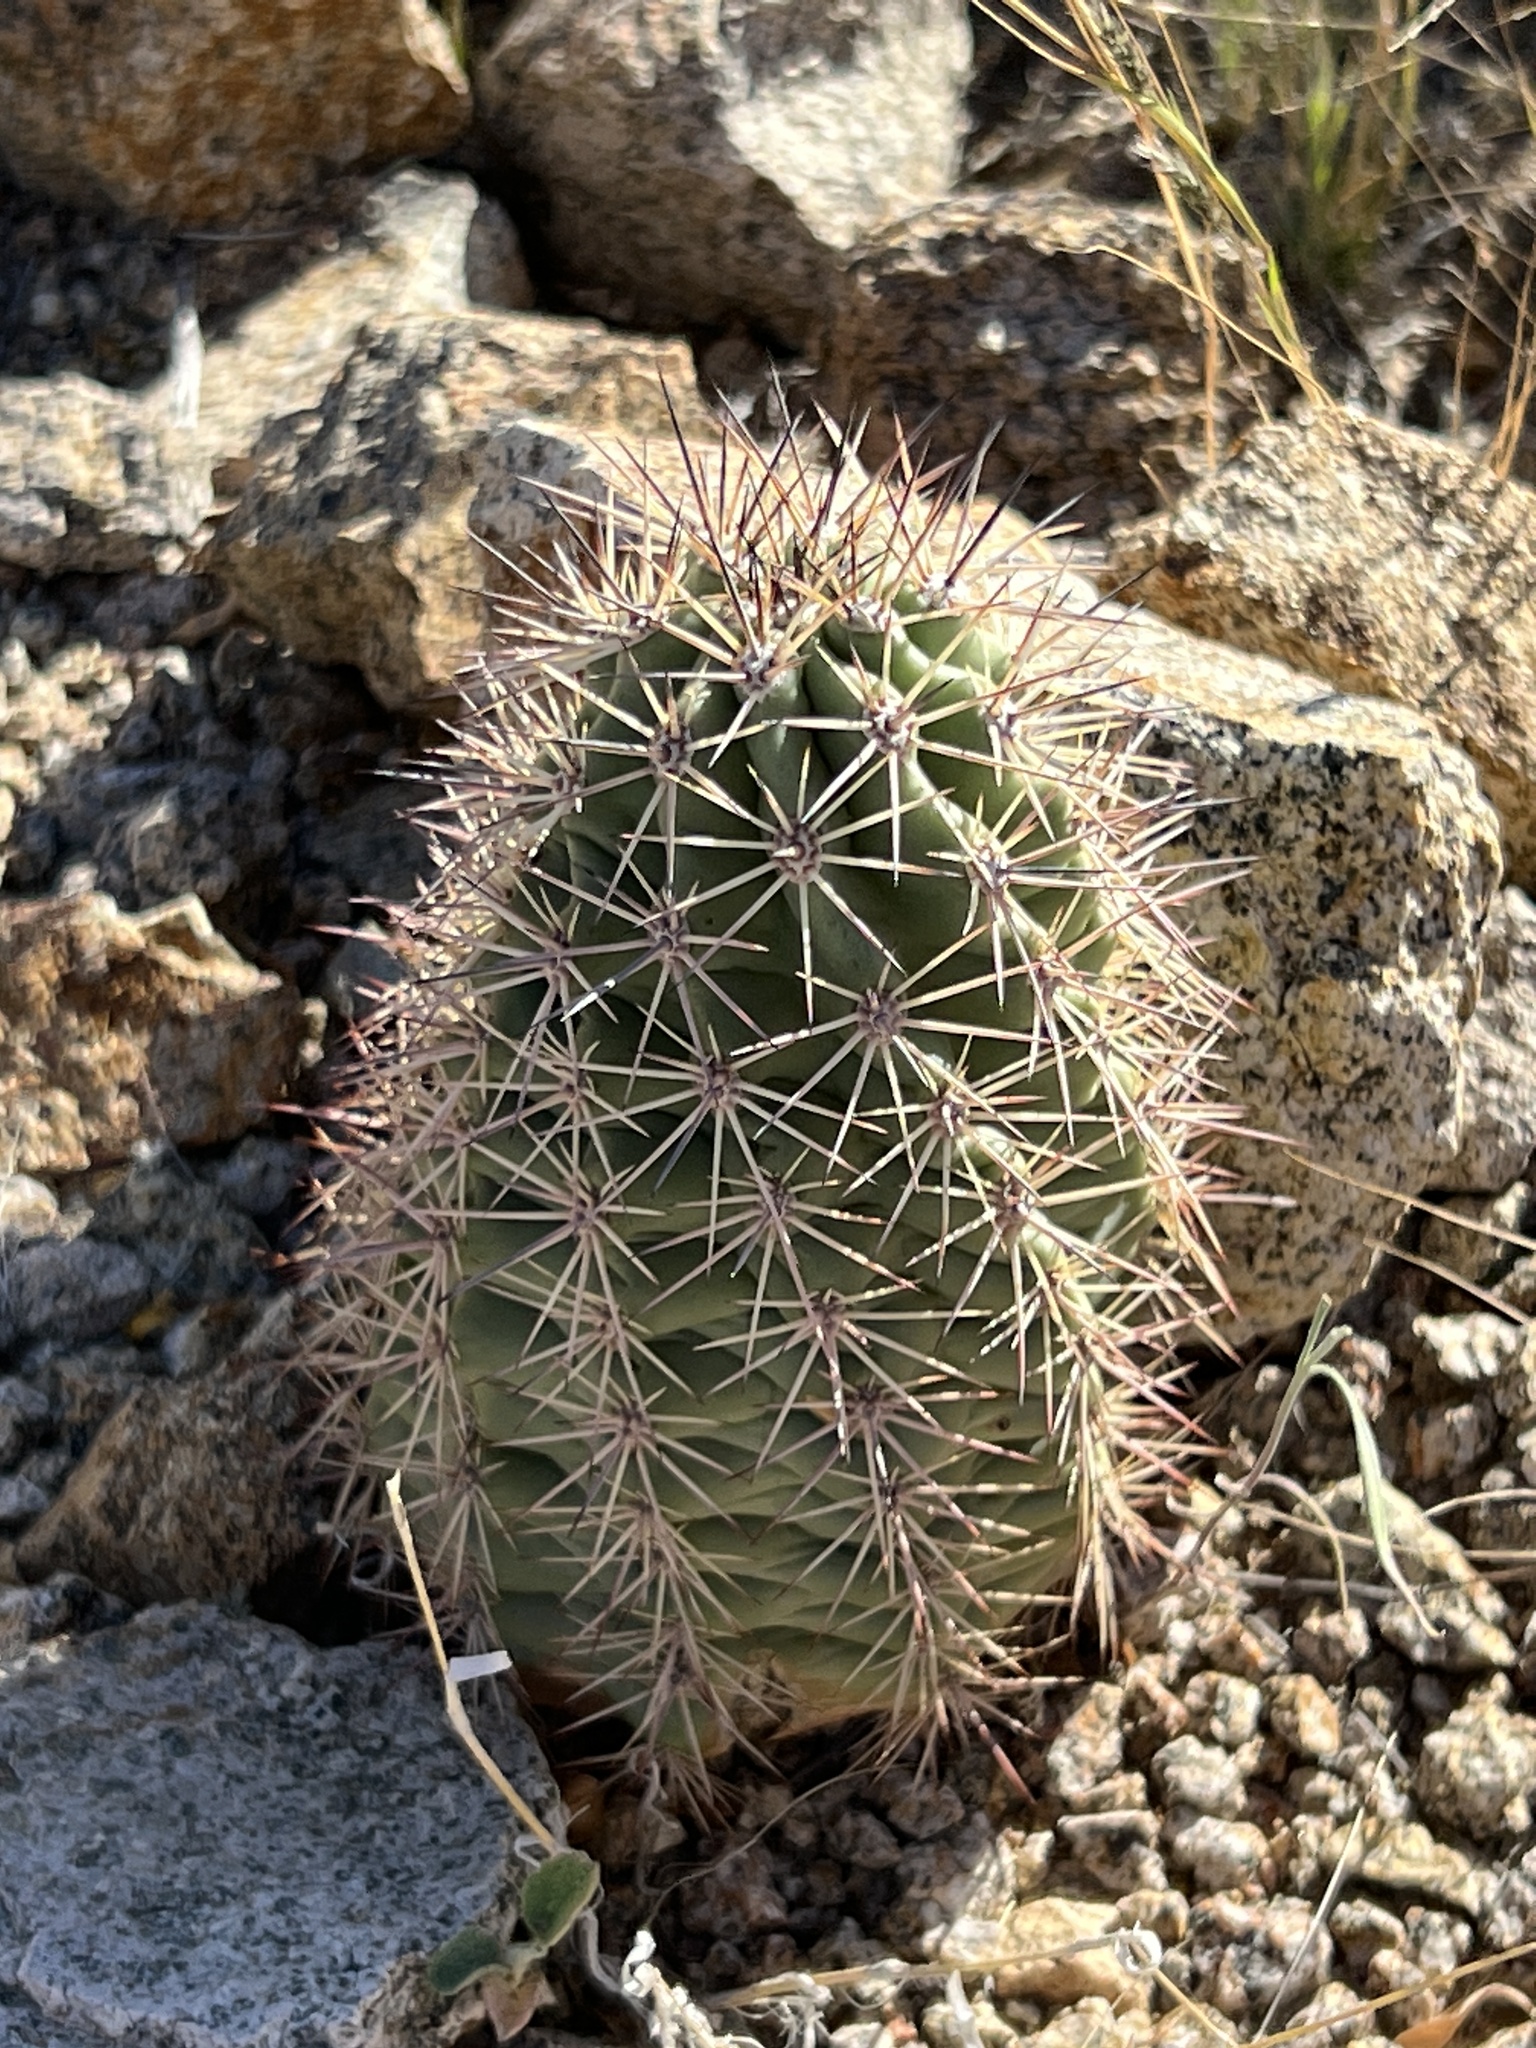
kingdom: Plantae
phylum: Tracheophyta
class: Magnoliopsida
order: Caryophyllales
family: Cactaceae
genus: Echinocereus
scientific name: Echinocereus coccineus
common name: Scarlet hedgehog cactus
